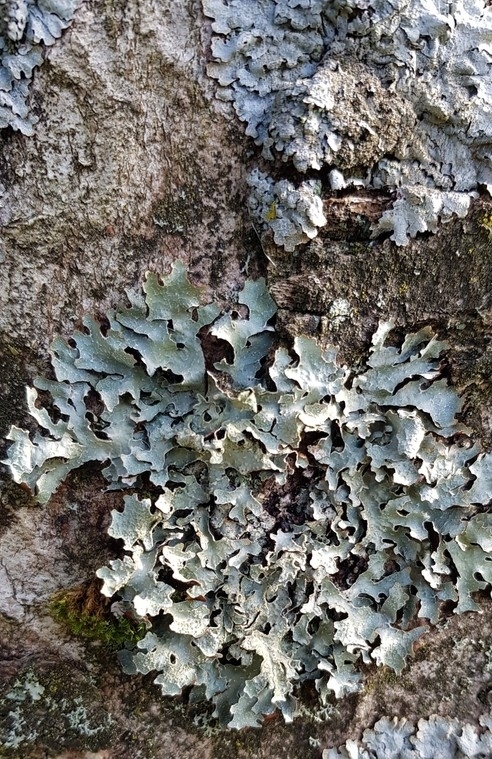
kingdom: Fungi
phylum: Ascomycota
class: Lecanoromycetes
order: Lecanorales
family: Parmeliaceae
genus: Parmelia
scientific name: Parmelia sulcata
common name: Netted shield lichen
